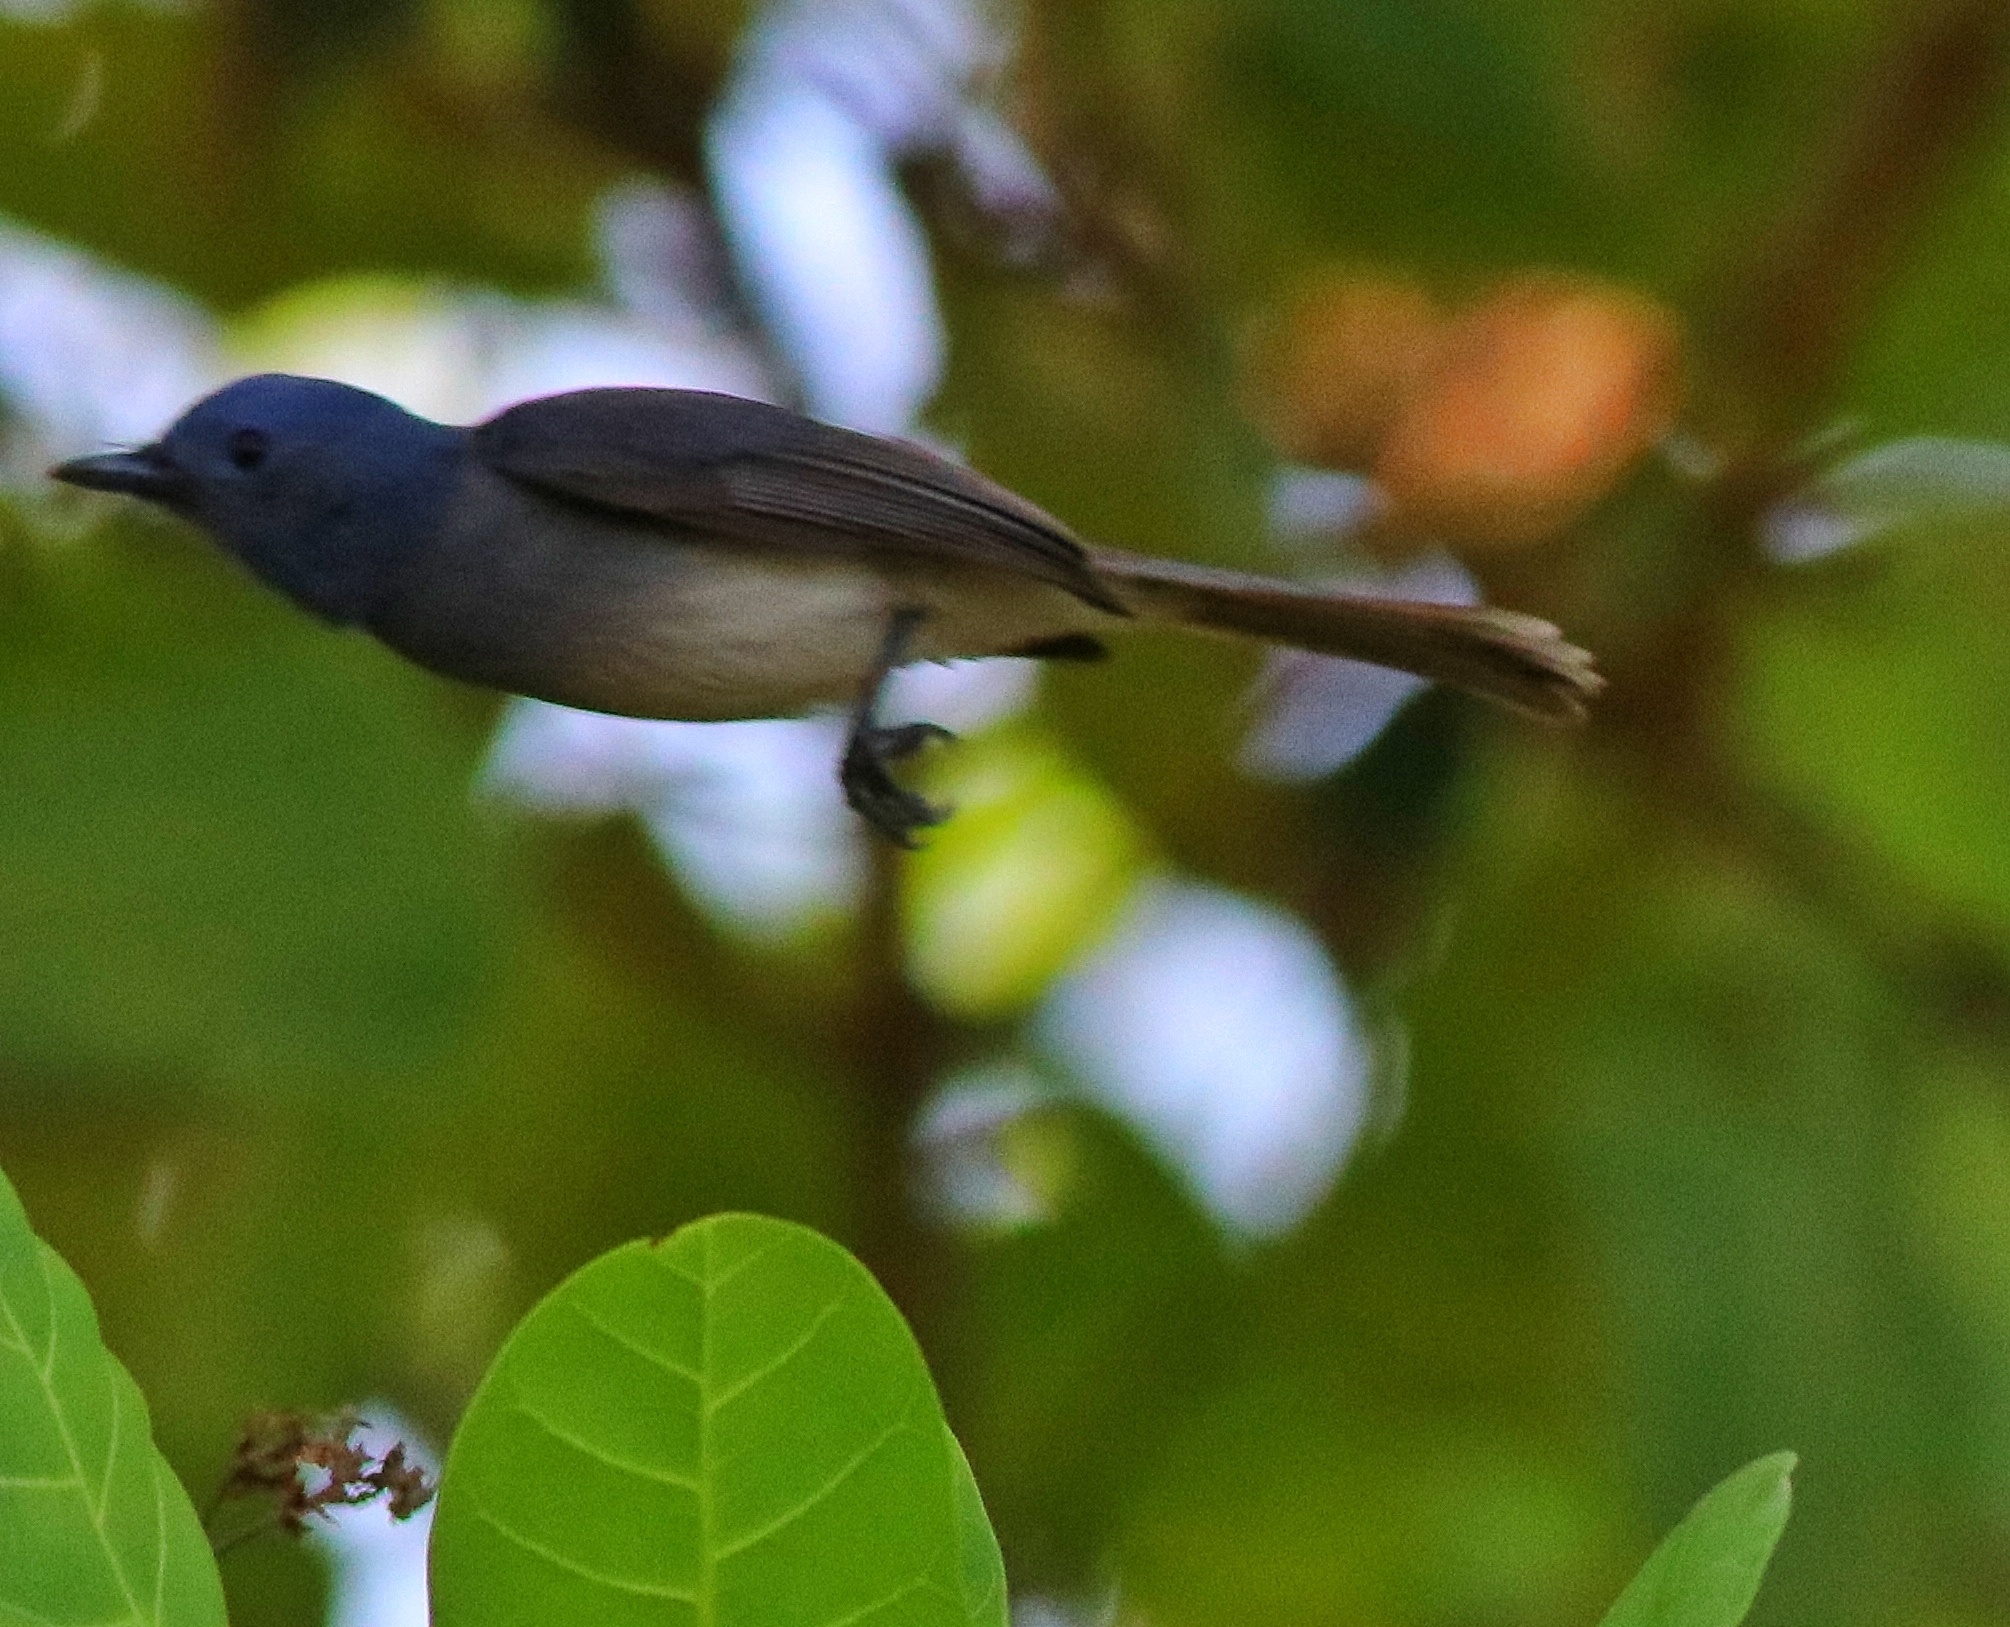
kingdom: Animalia
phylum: Chordata
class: Aves
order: Passeriformes
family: Monarchidae
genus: Hypothymis
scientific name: Hypothymis azurea
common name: Black-naped monarch
